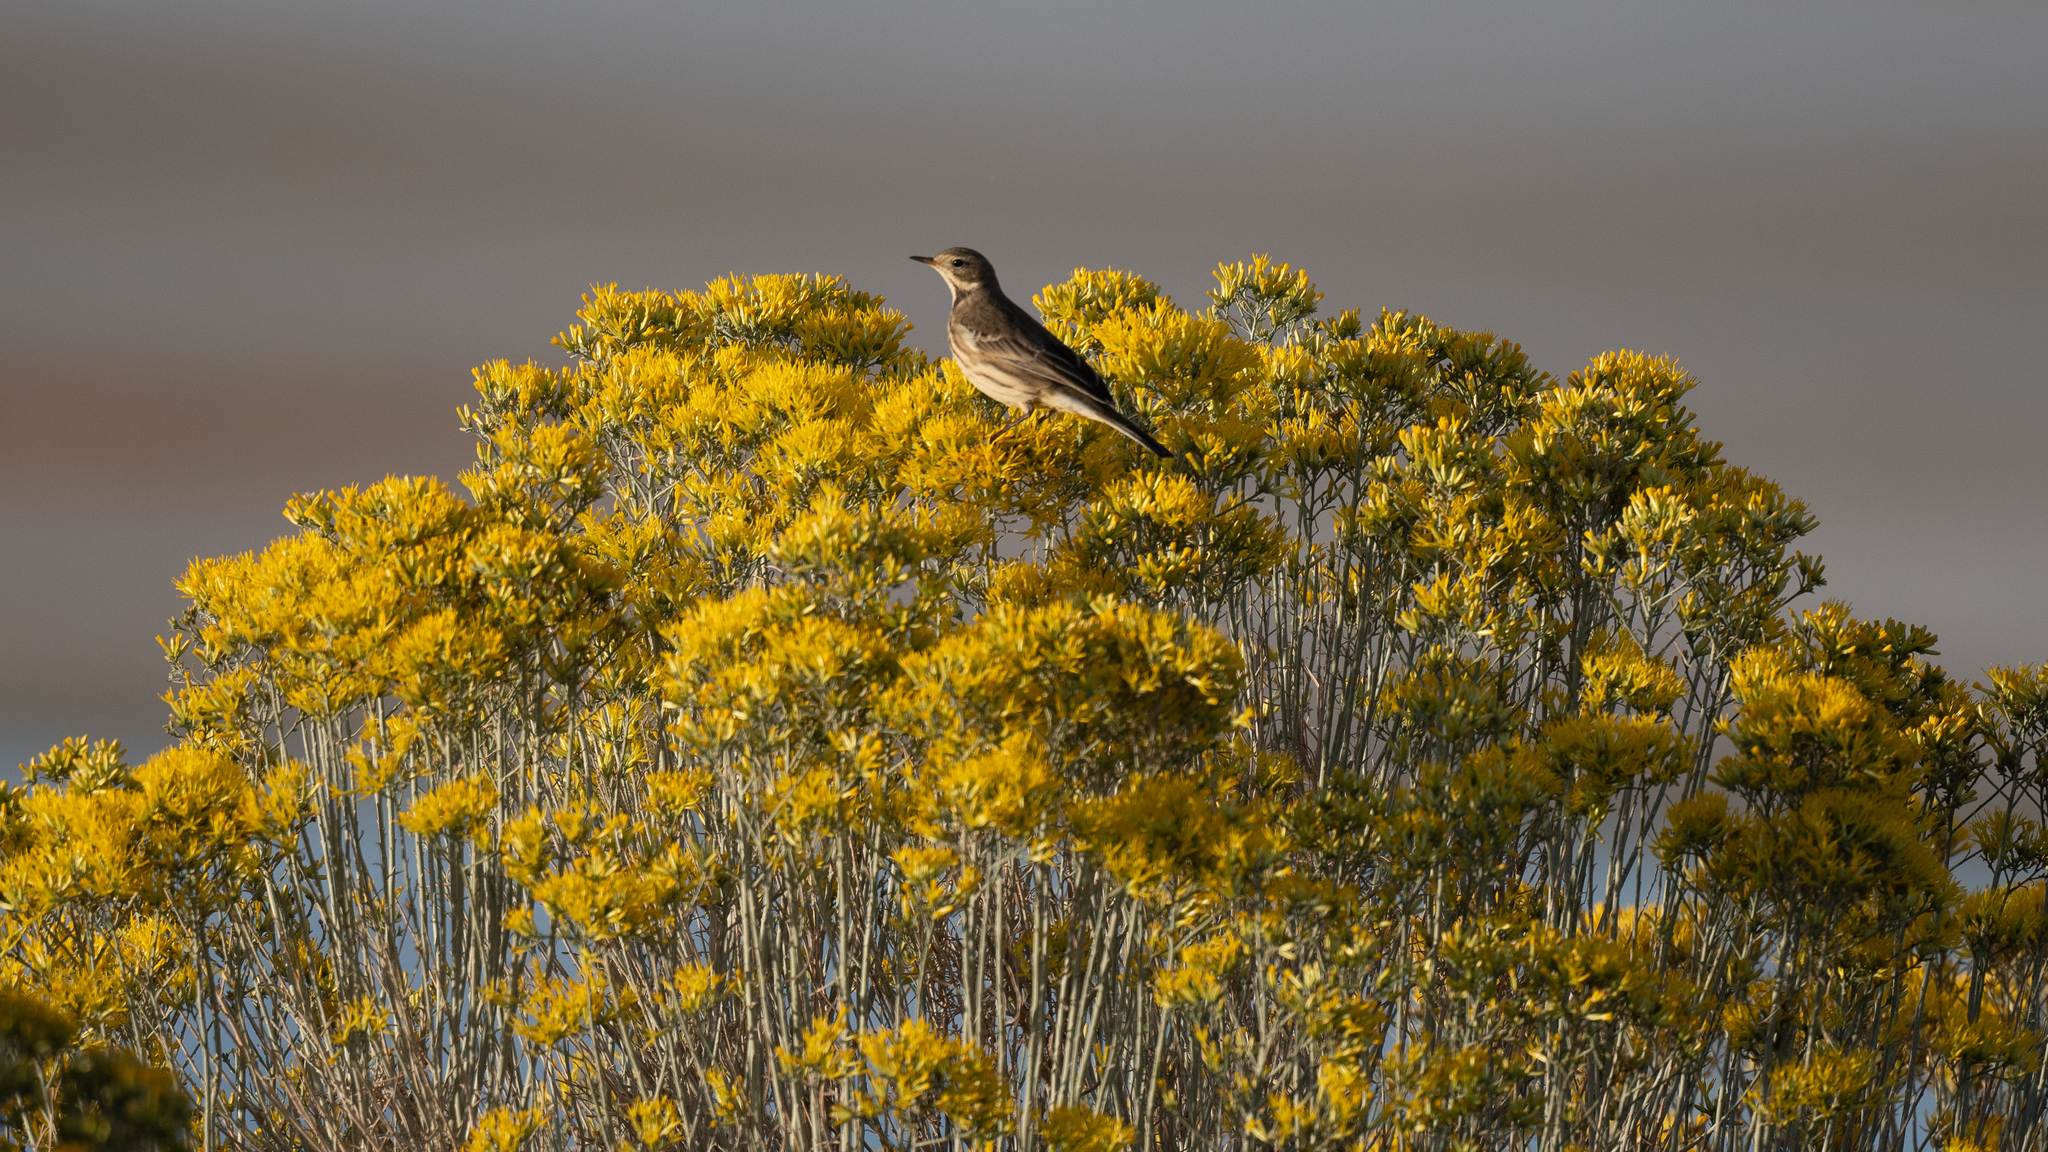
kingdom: Animalia
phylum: Chordata
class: Aves
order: Passeriformes
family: Motacillidae
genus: Anthus
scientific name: Anthus rubescens
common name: Buff-bellied pipit
